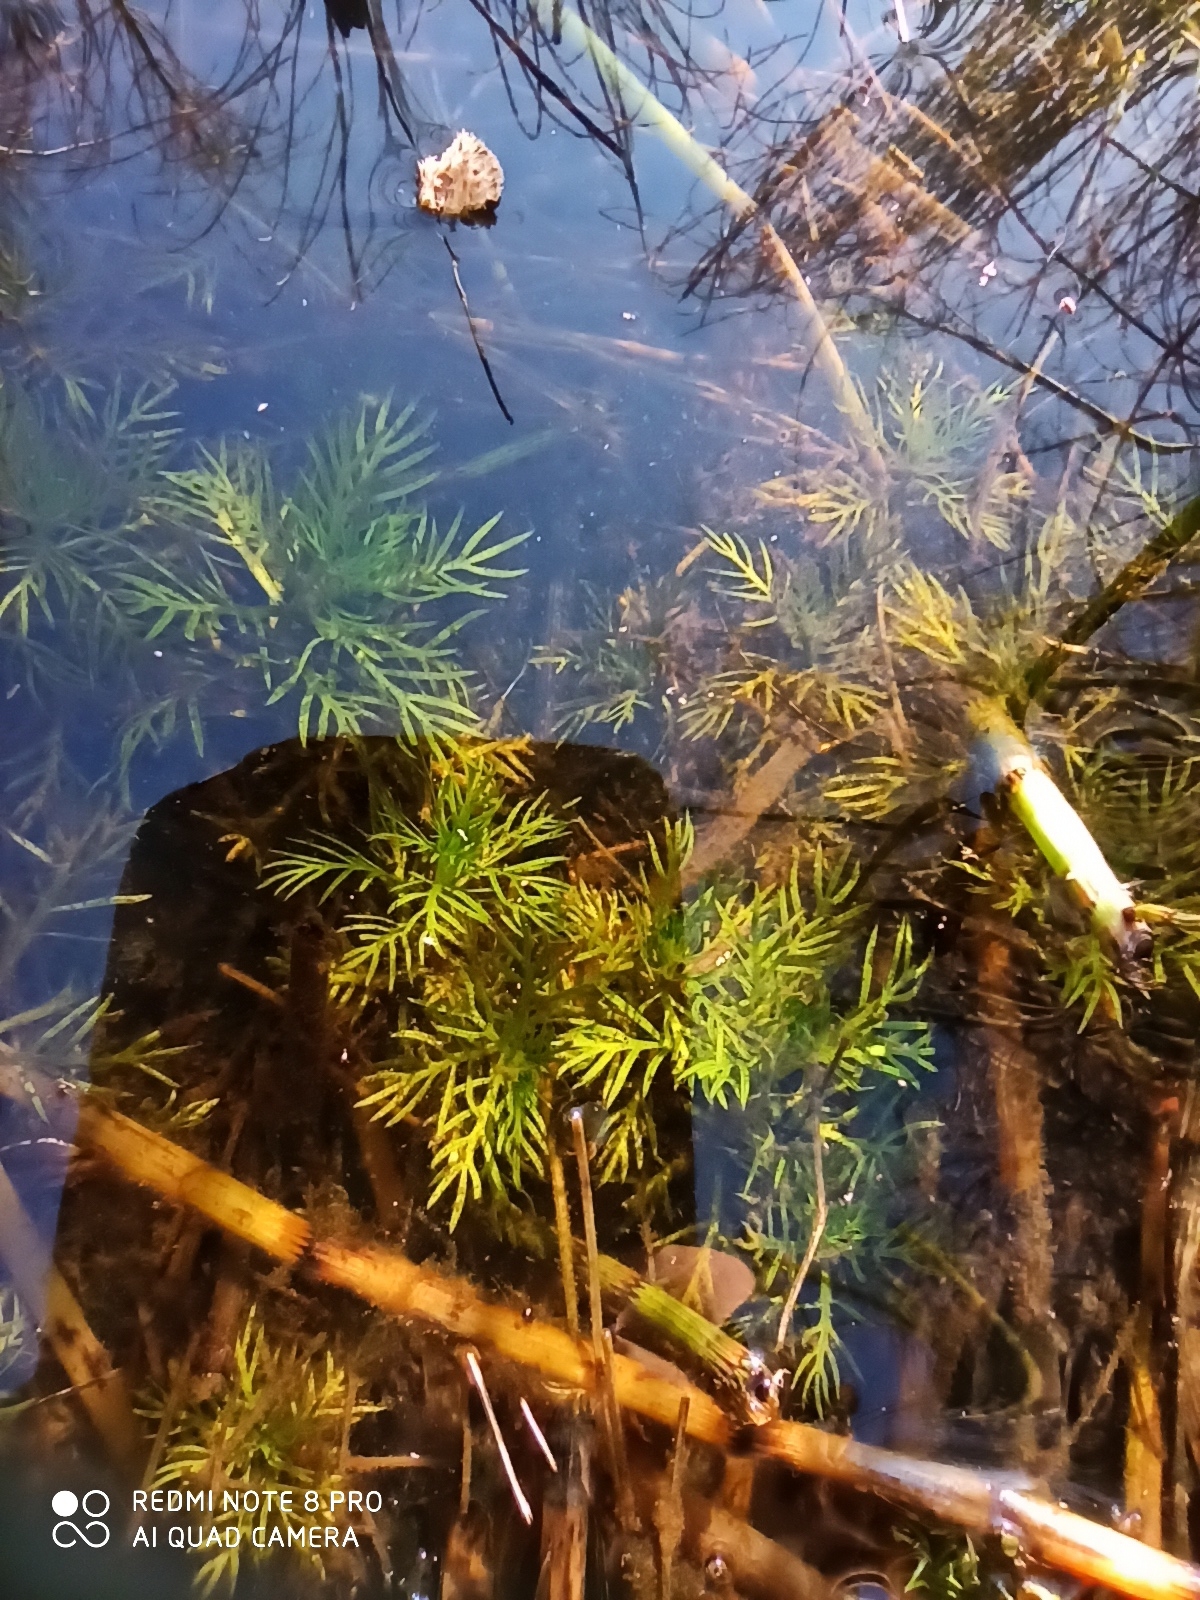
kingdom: Plantae
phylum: Tracheophyta
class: Magnoliopsida
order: Ericales
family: Primulaceae
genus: Hottonia
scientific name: Hottonia palustris
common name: Water-violet
